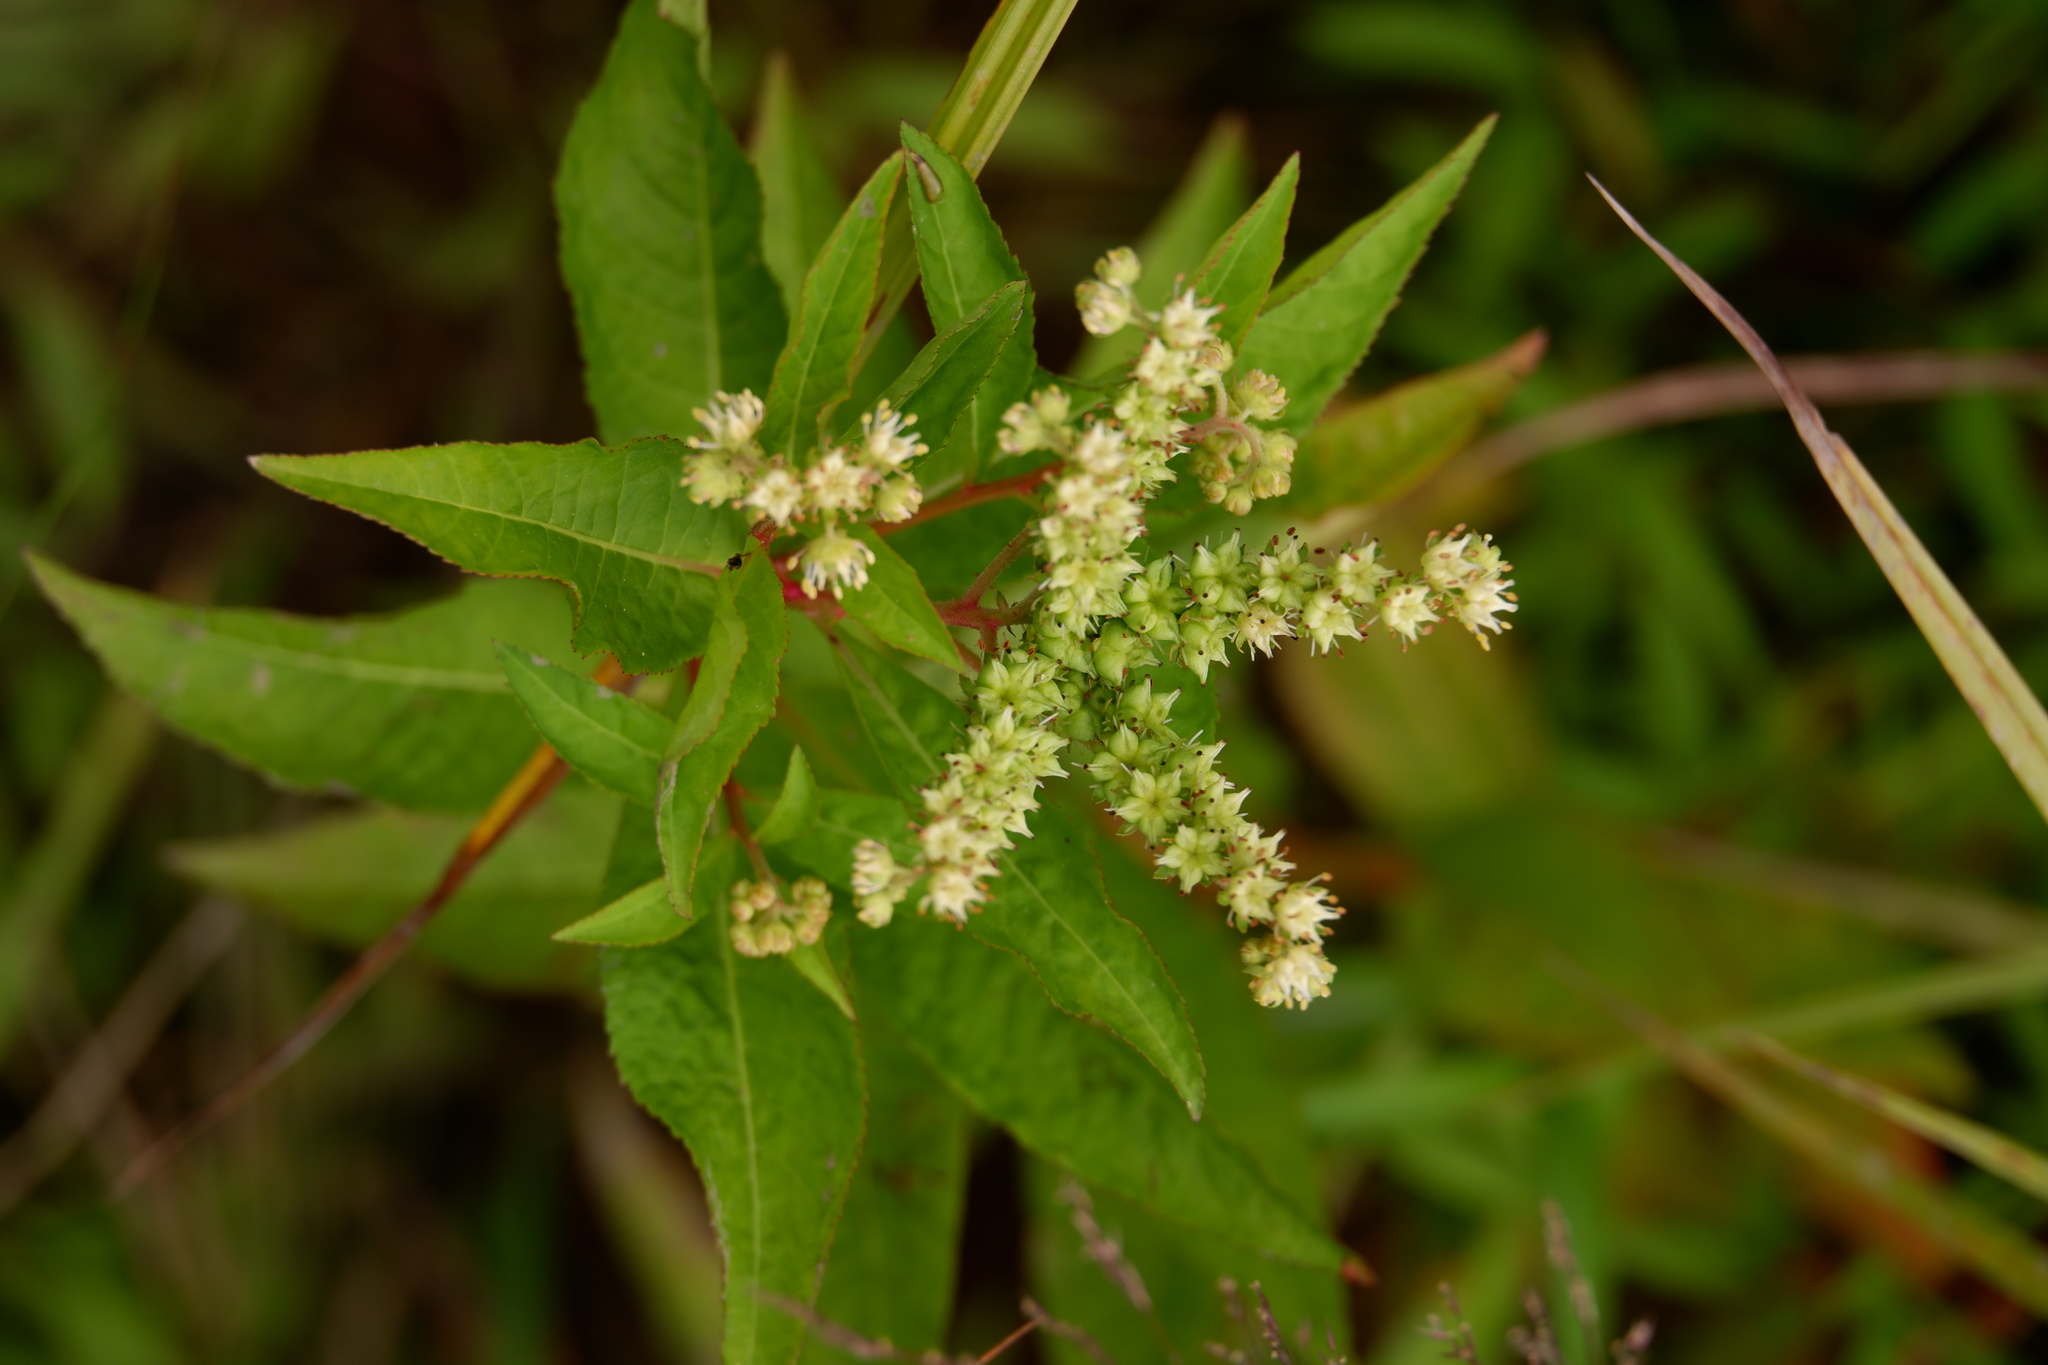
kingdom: Plantae
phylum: Tracheophyta
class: Magnoliopsida
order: Saxifragales
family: Penthoraceae
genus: Penthorum
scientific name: Penthorum sedoides
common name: Ditch stonecrop
